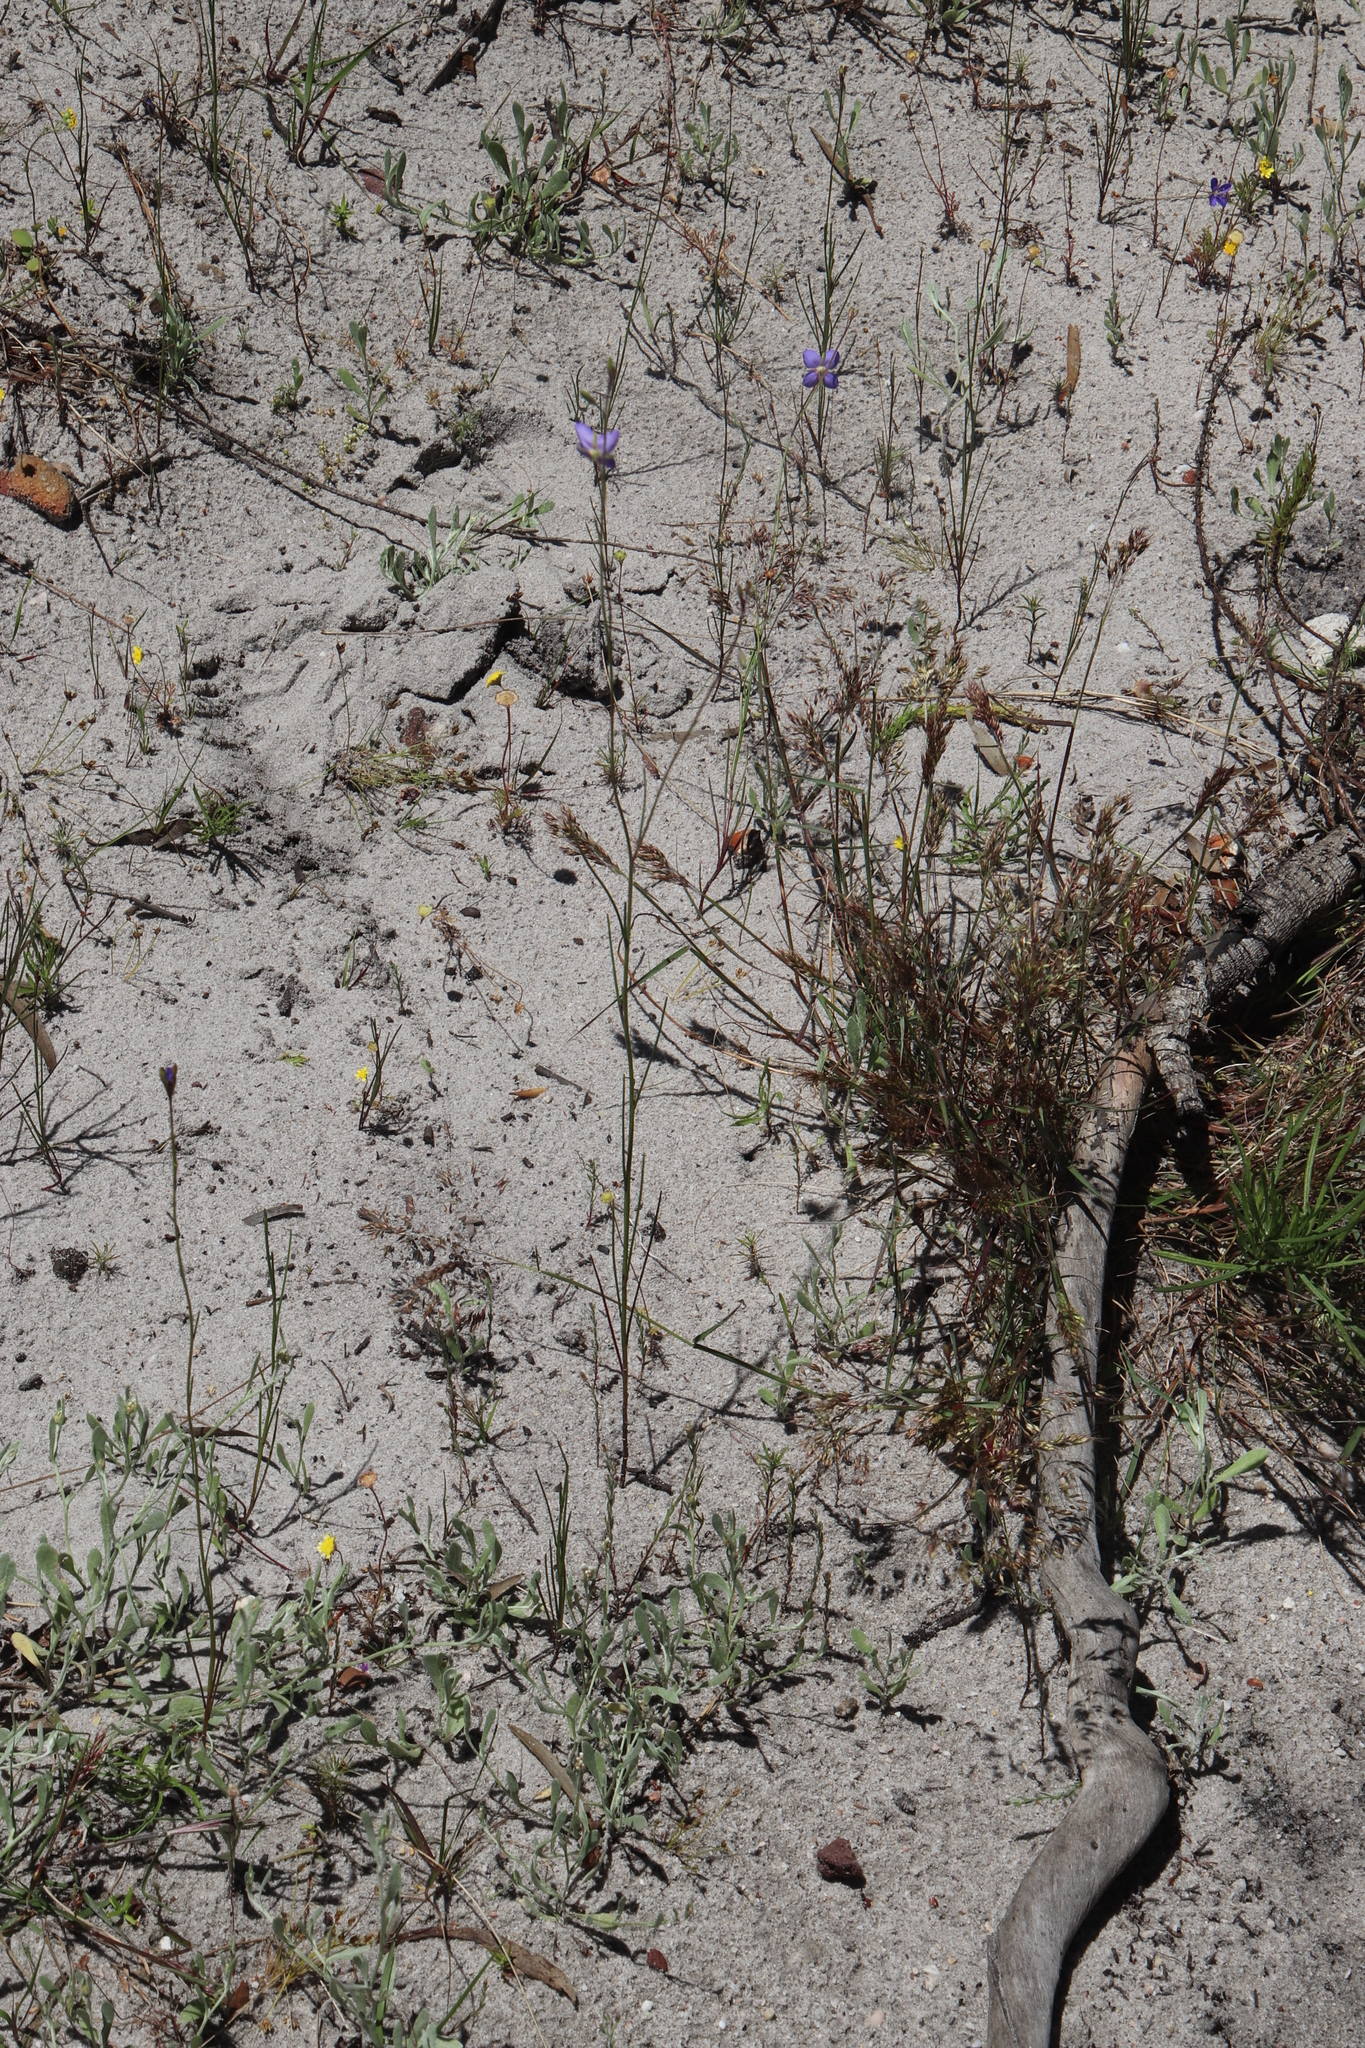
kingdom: Plantae
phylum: Tracheophyta
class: Magnoliopsida
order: Brassicales
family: Brassicaceae
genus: Heliophila
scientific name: Heliophila adpressa
